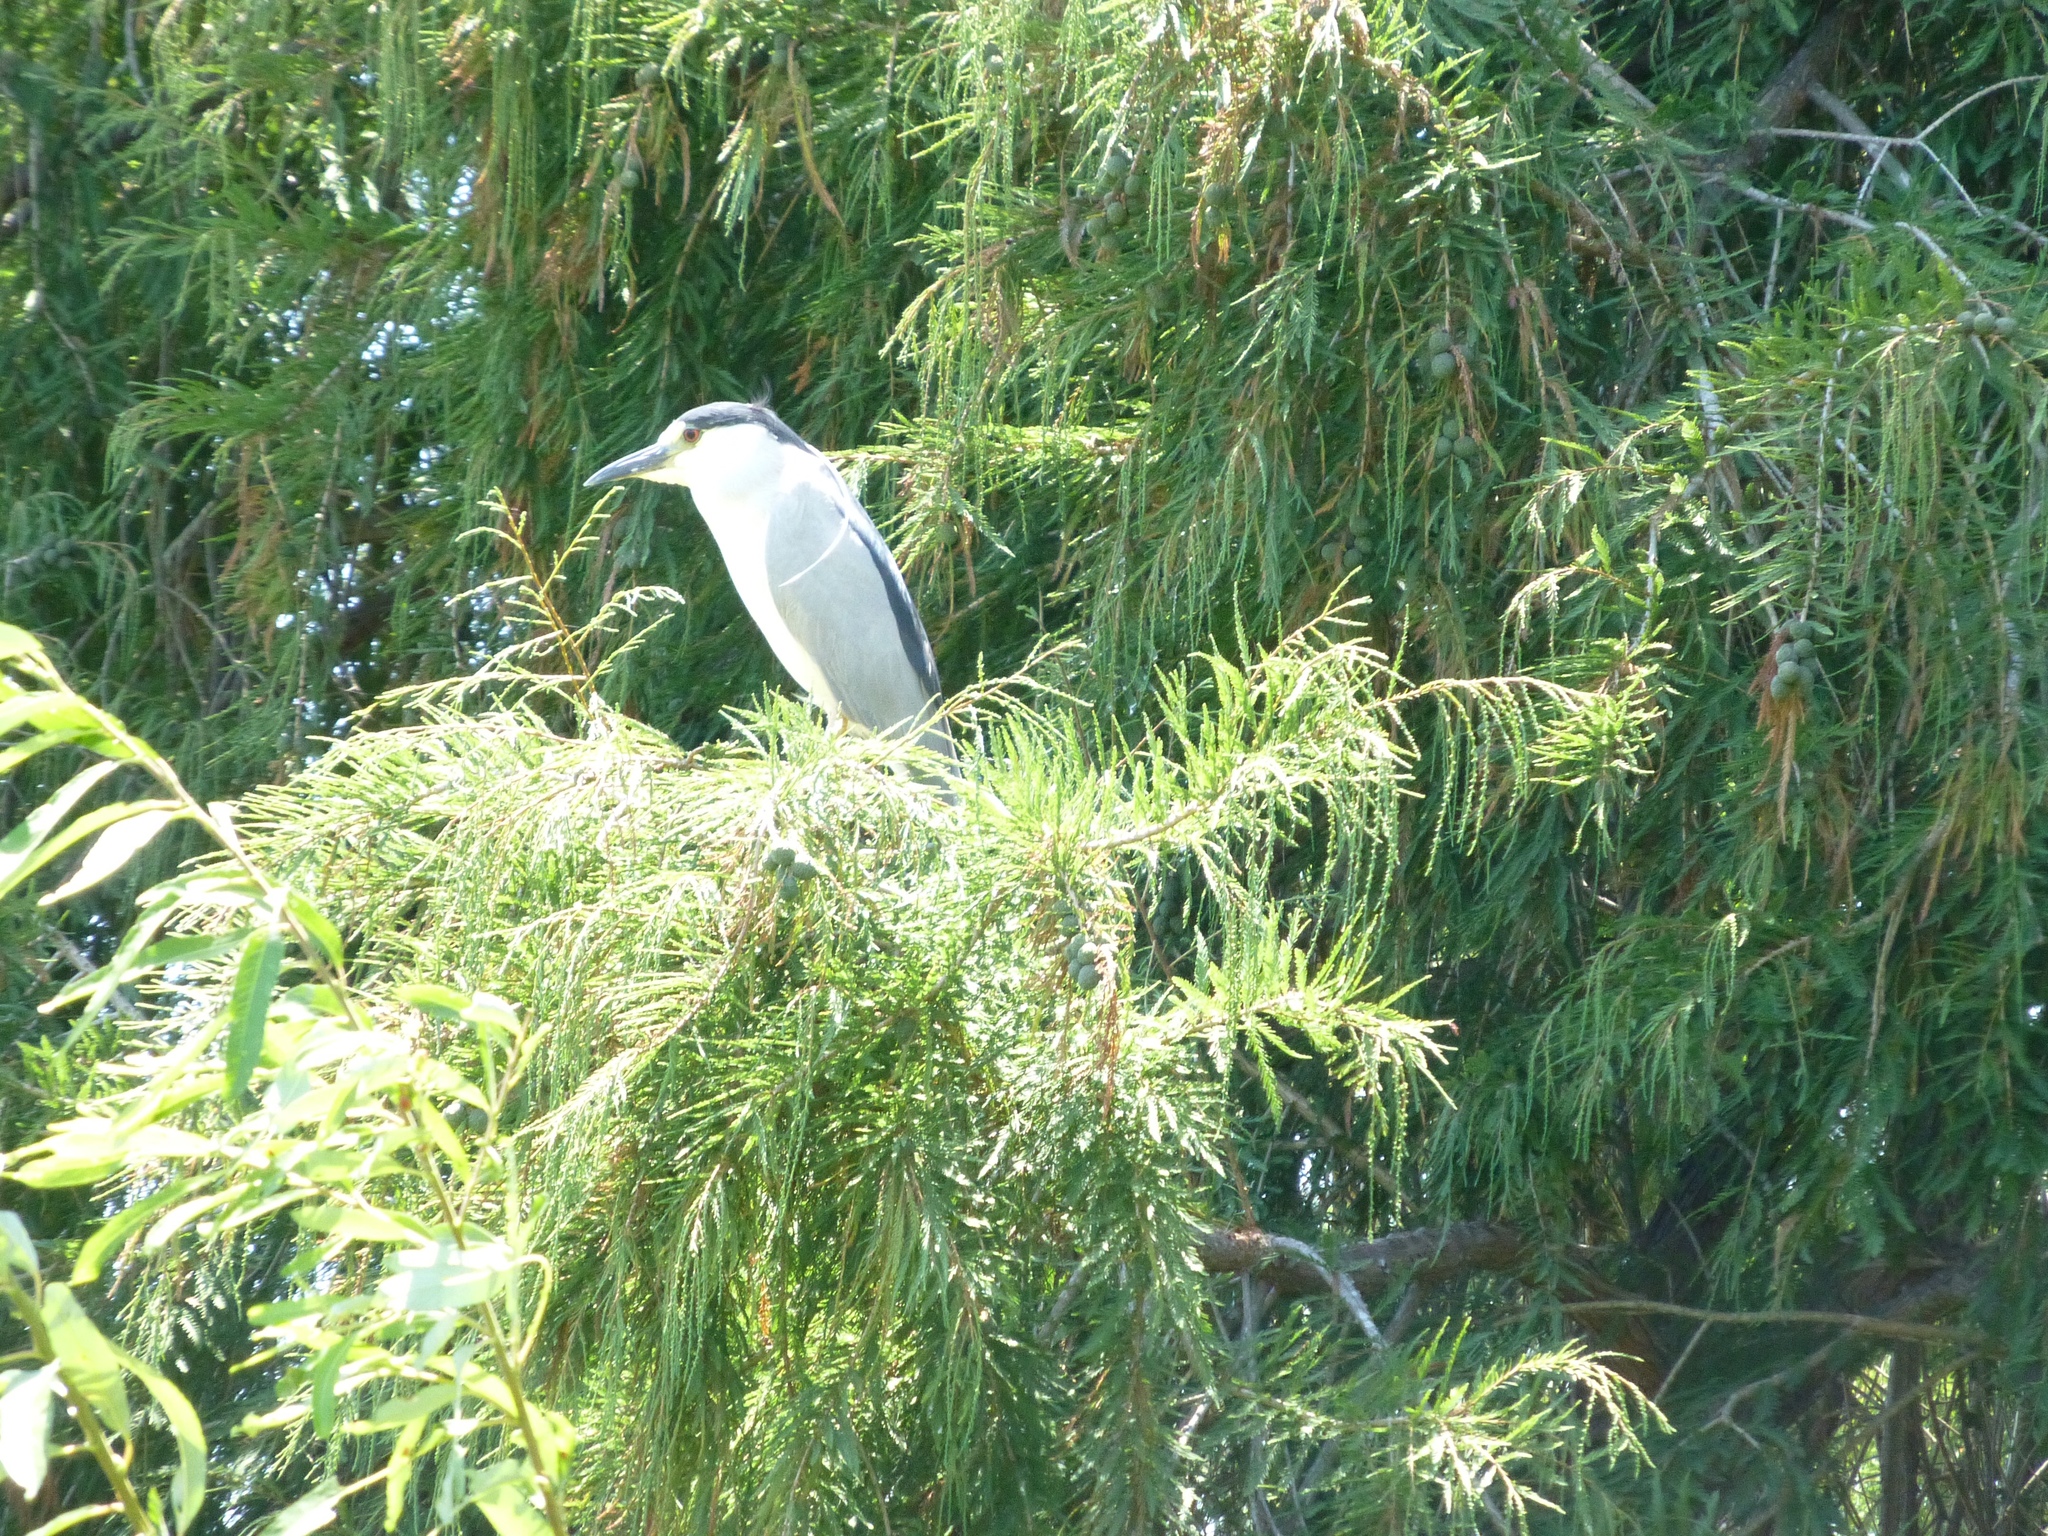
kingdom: Animalia
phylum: Chordata
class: Aves
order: Pelecaniformes
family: Ardeidae
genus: Nycticorax
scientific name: Nycticorax nycticorax
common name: Black-crowned night heron
